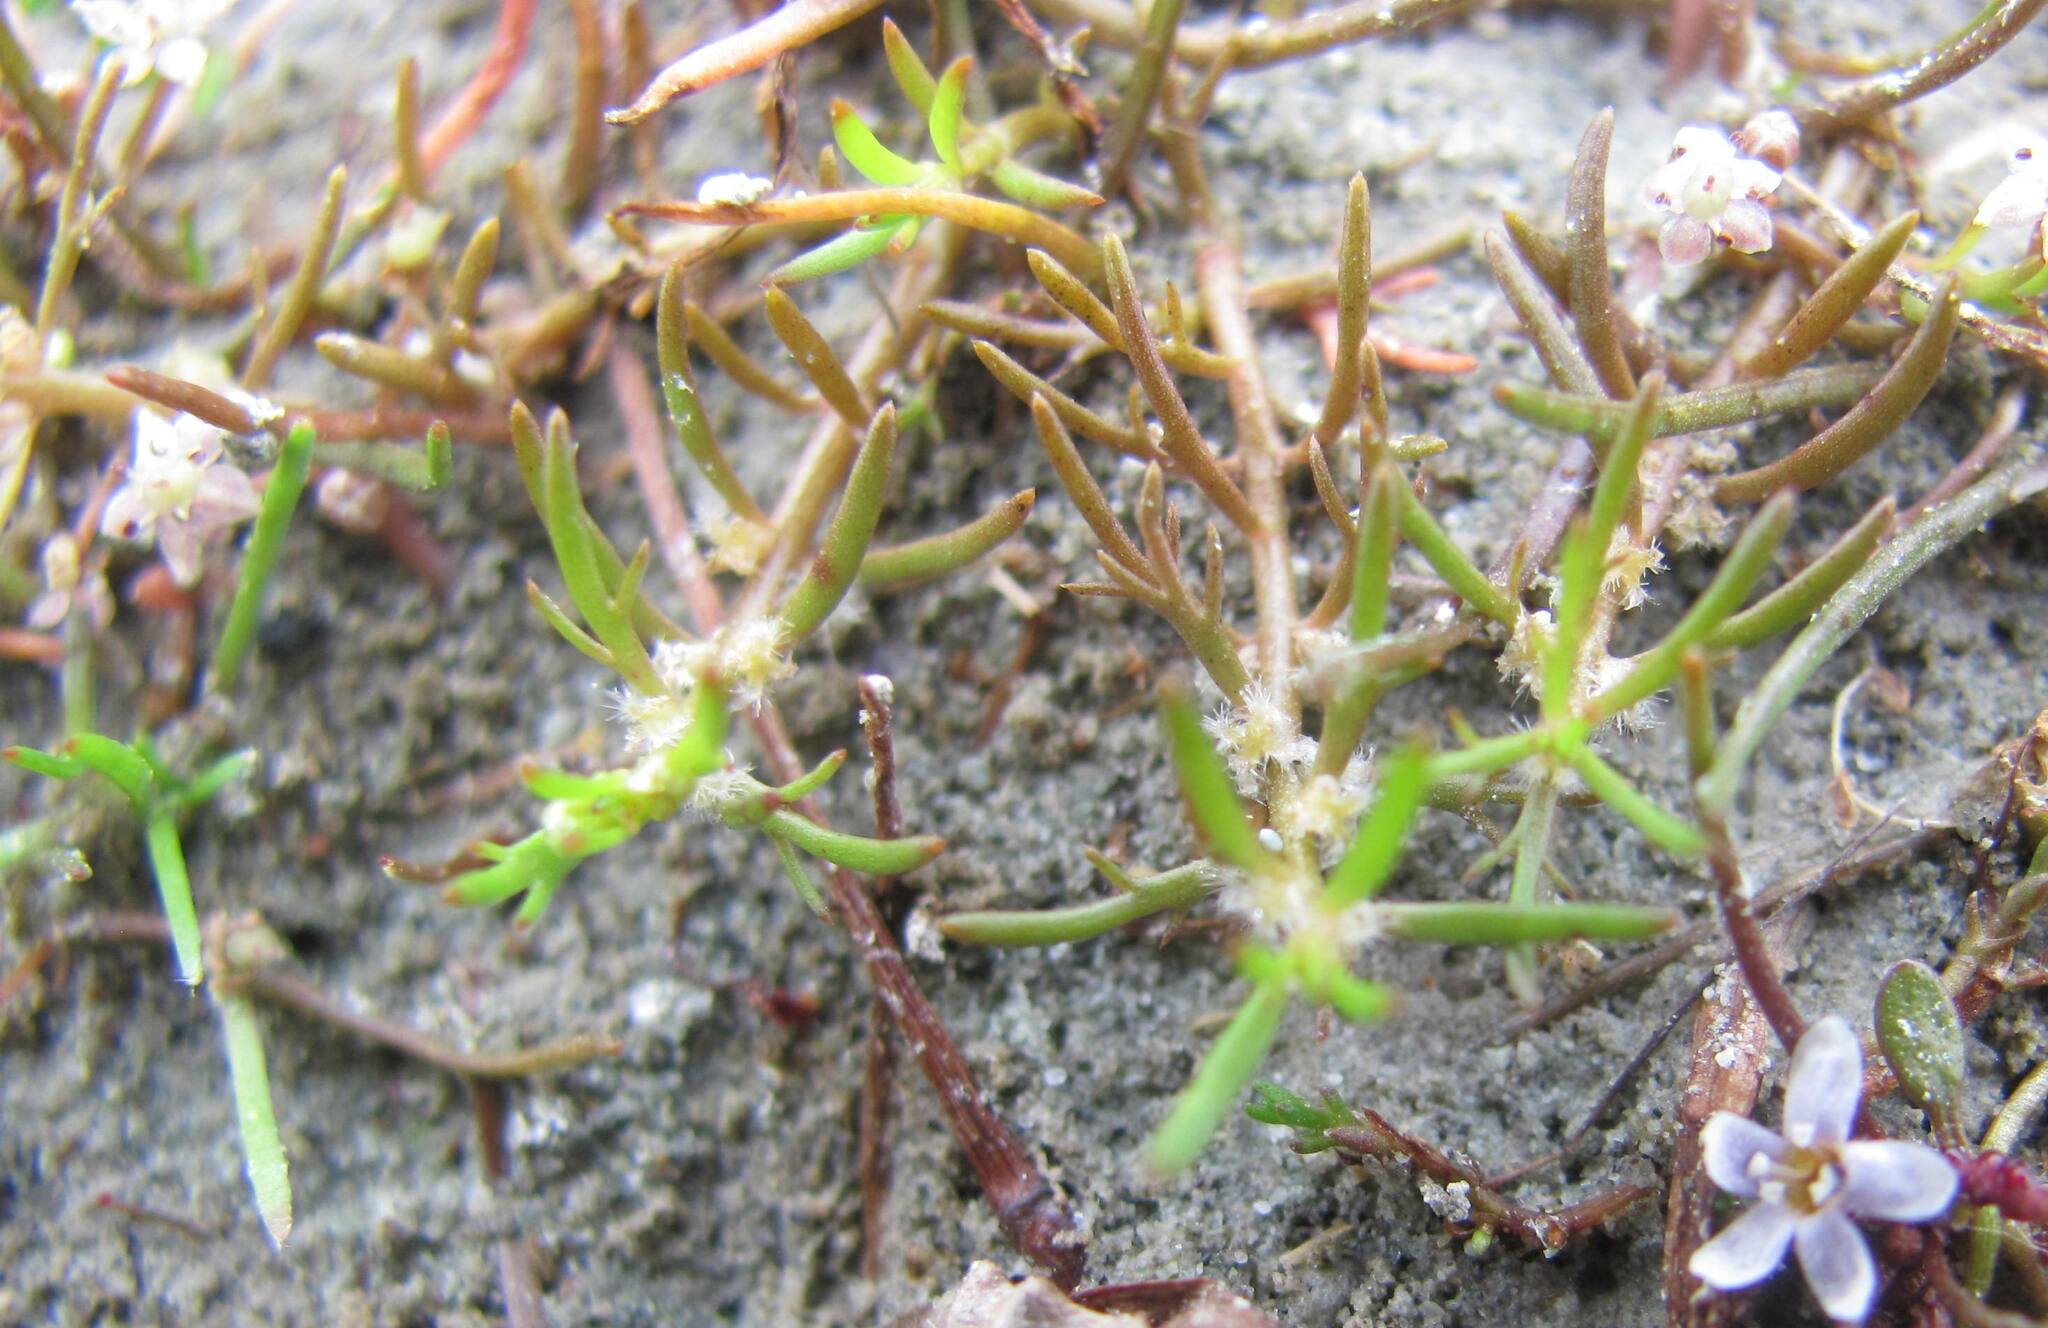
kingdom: Plantae
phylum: Tracheophyta
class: Magnoliopsida
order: Saxifragales
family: Haloragaceae
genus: Myriophyllum
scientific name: Myriophyllum propinquum
